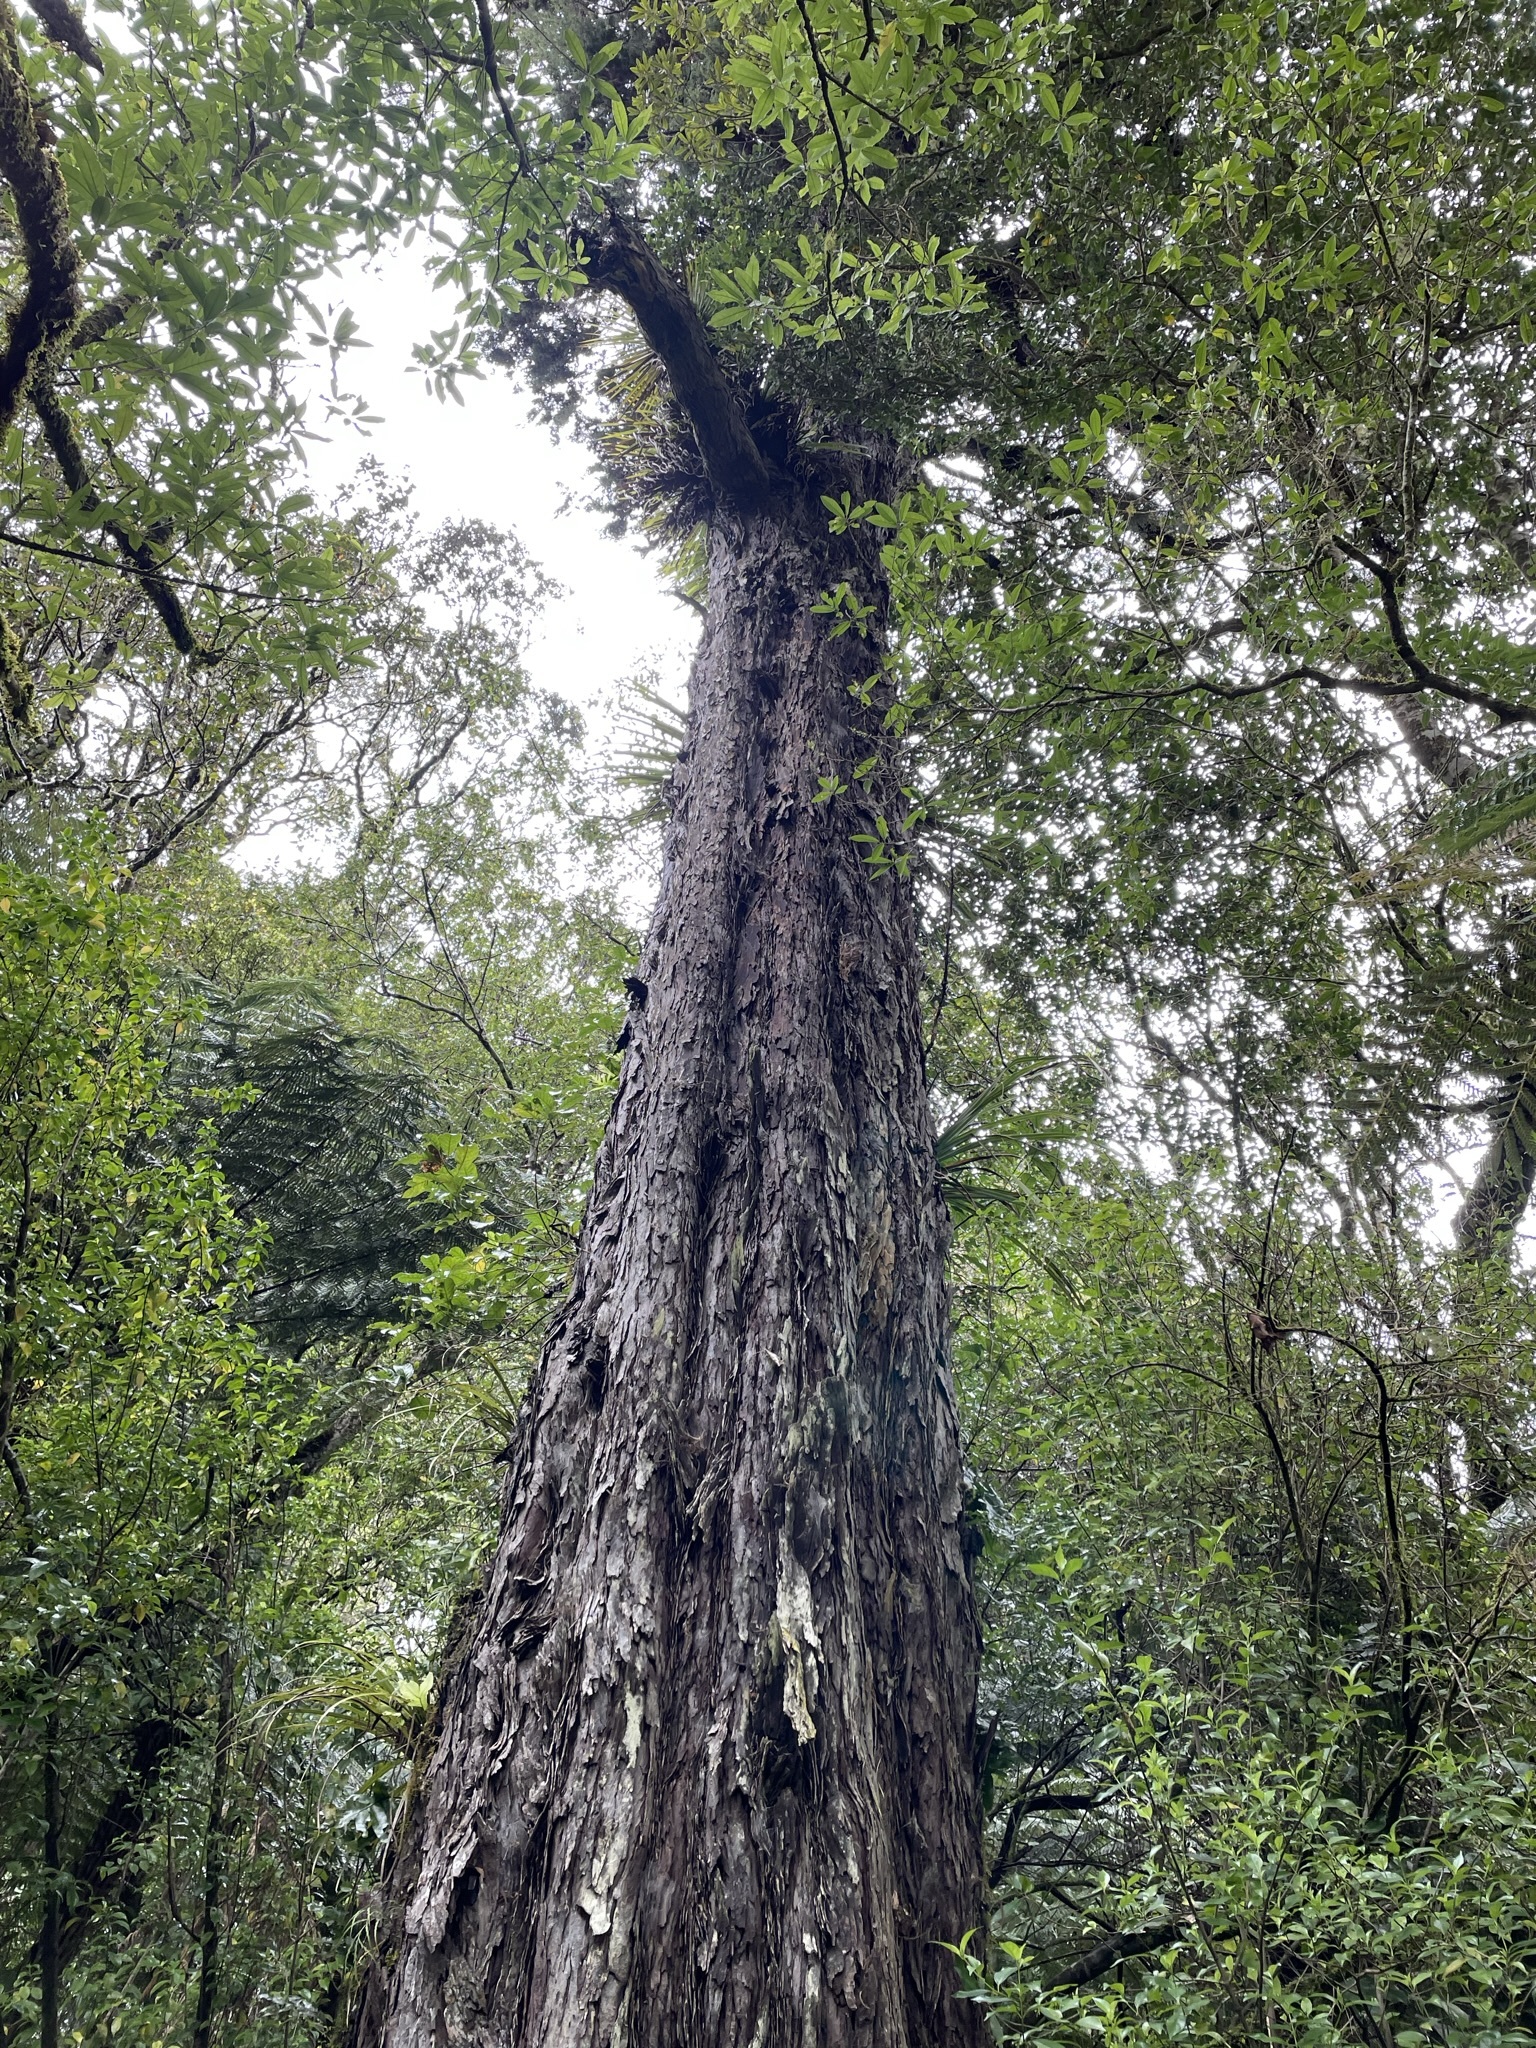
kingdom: Plantae
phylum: Tracheophyta
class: Pinopsida
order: Pinales
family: Podocarpaceae
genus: Dacrydium
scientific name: Dacrydium cupressinum
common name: Red pine
